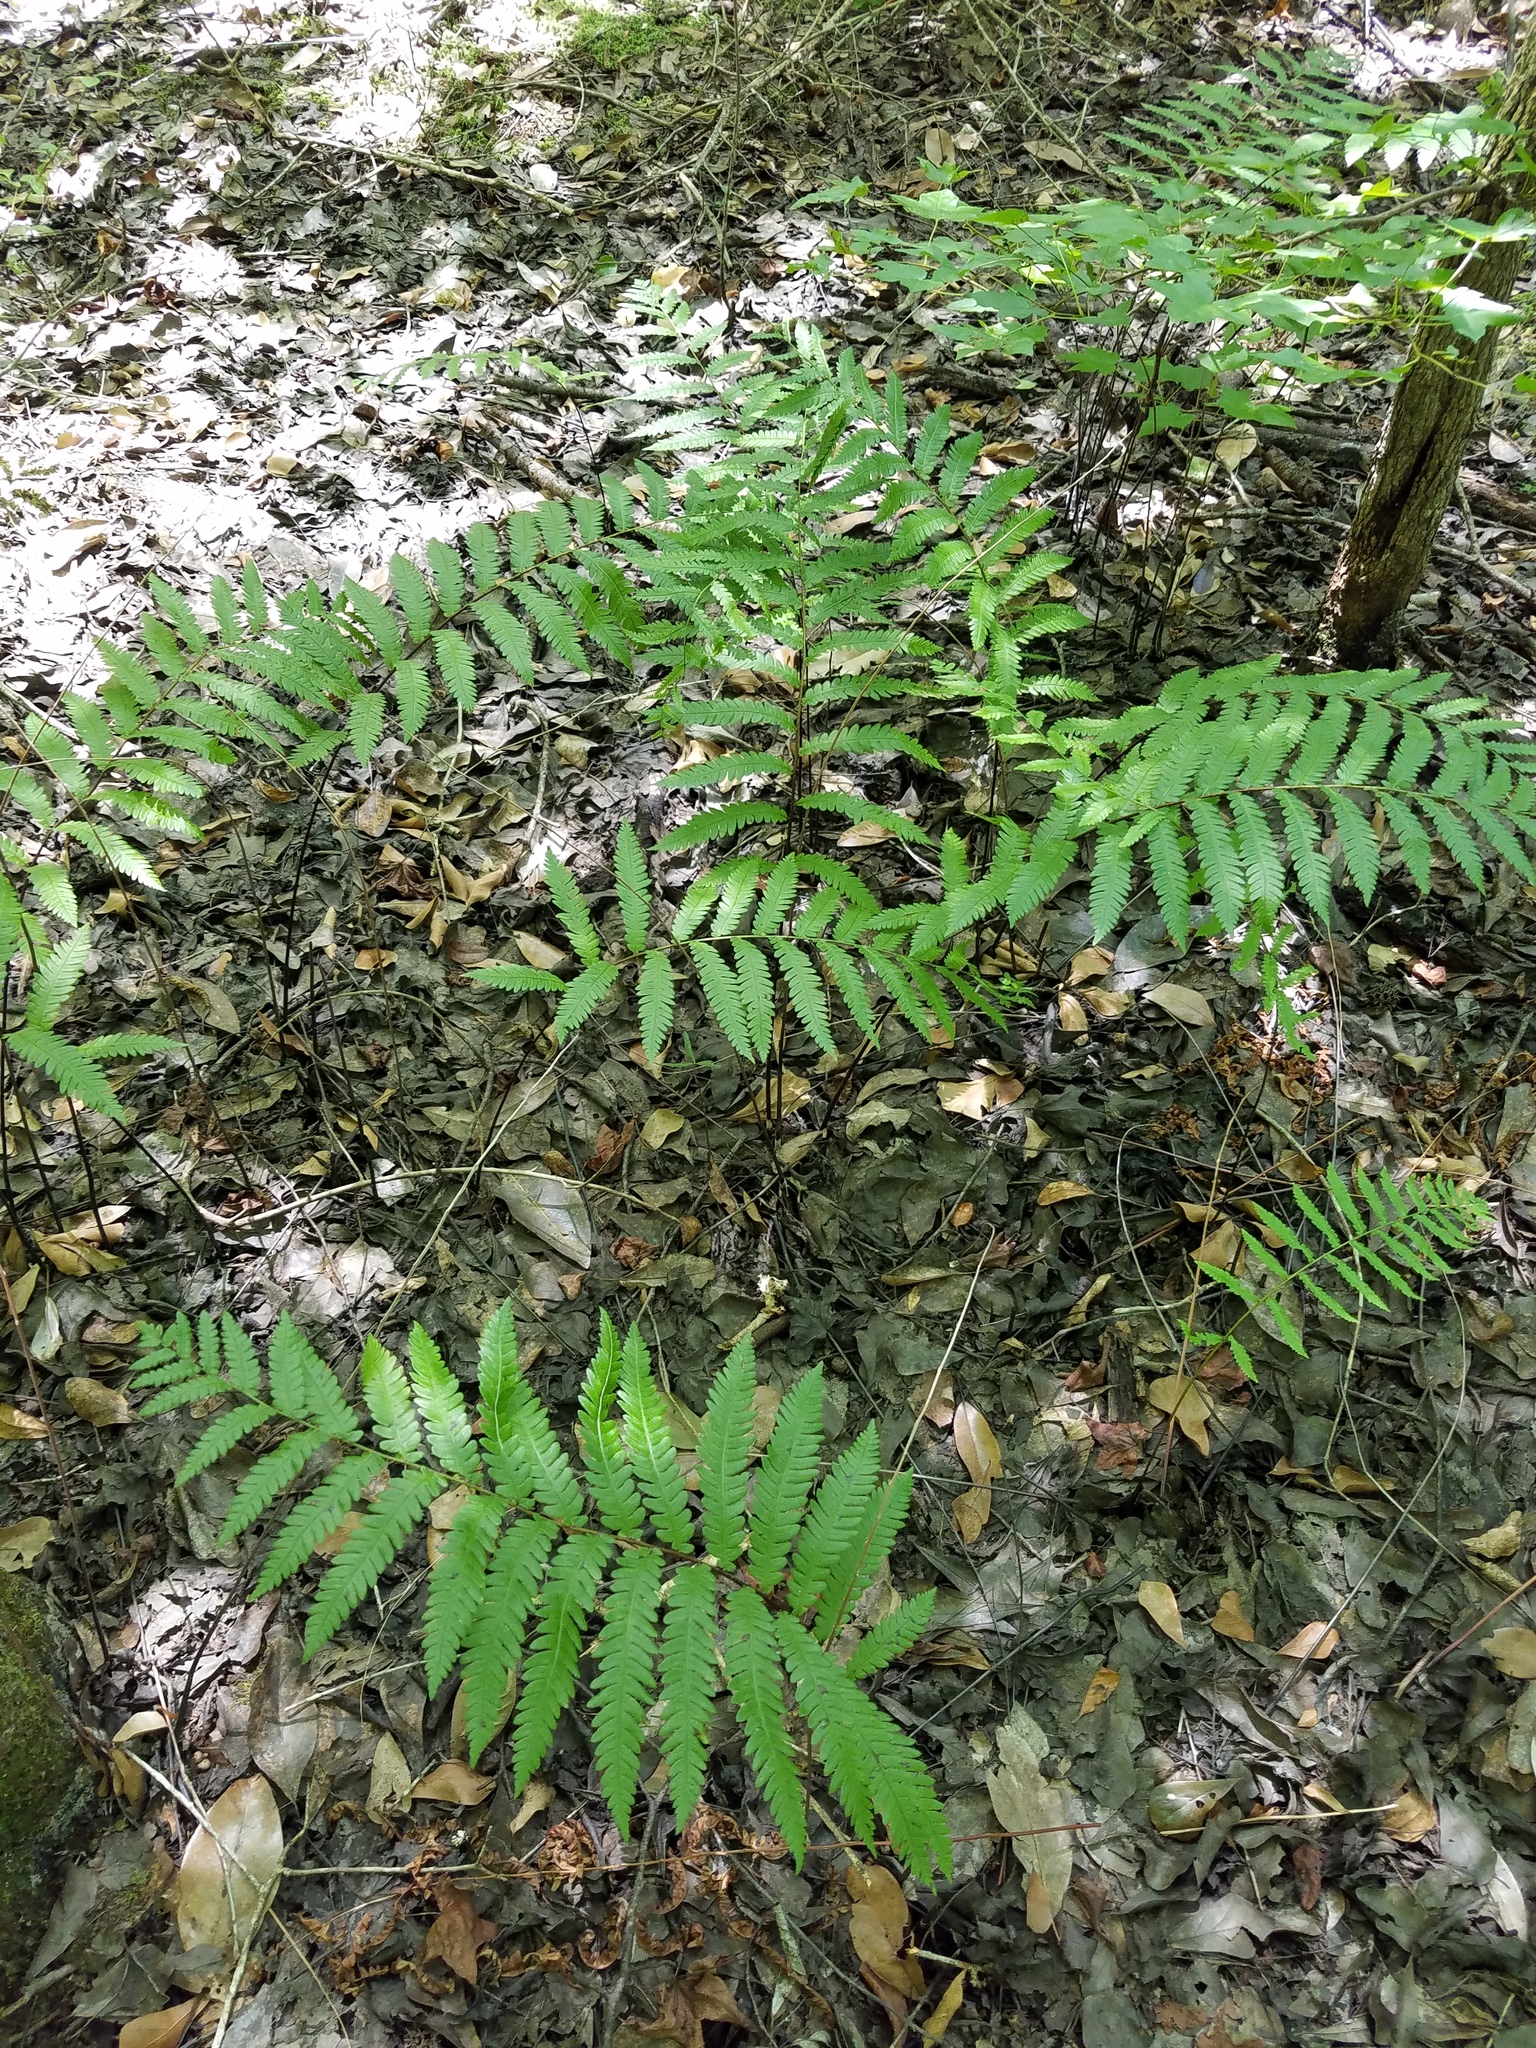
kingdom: Plantae
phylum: Tracheophyta
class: Polypodiopsida
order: Polypodiales
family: Blechnaceae
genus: Anchistea
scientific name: Anchistea virginica
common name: Virginia chain fern
